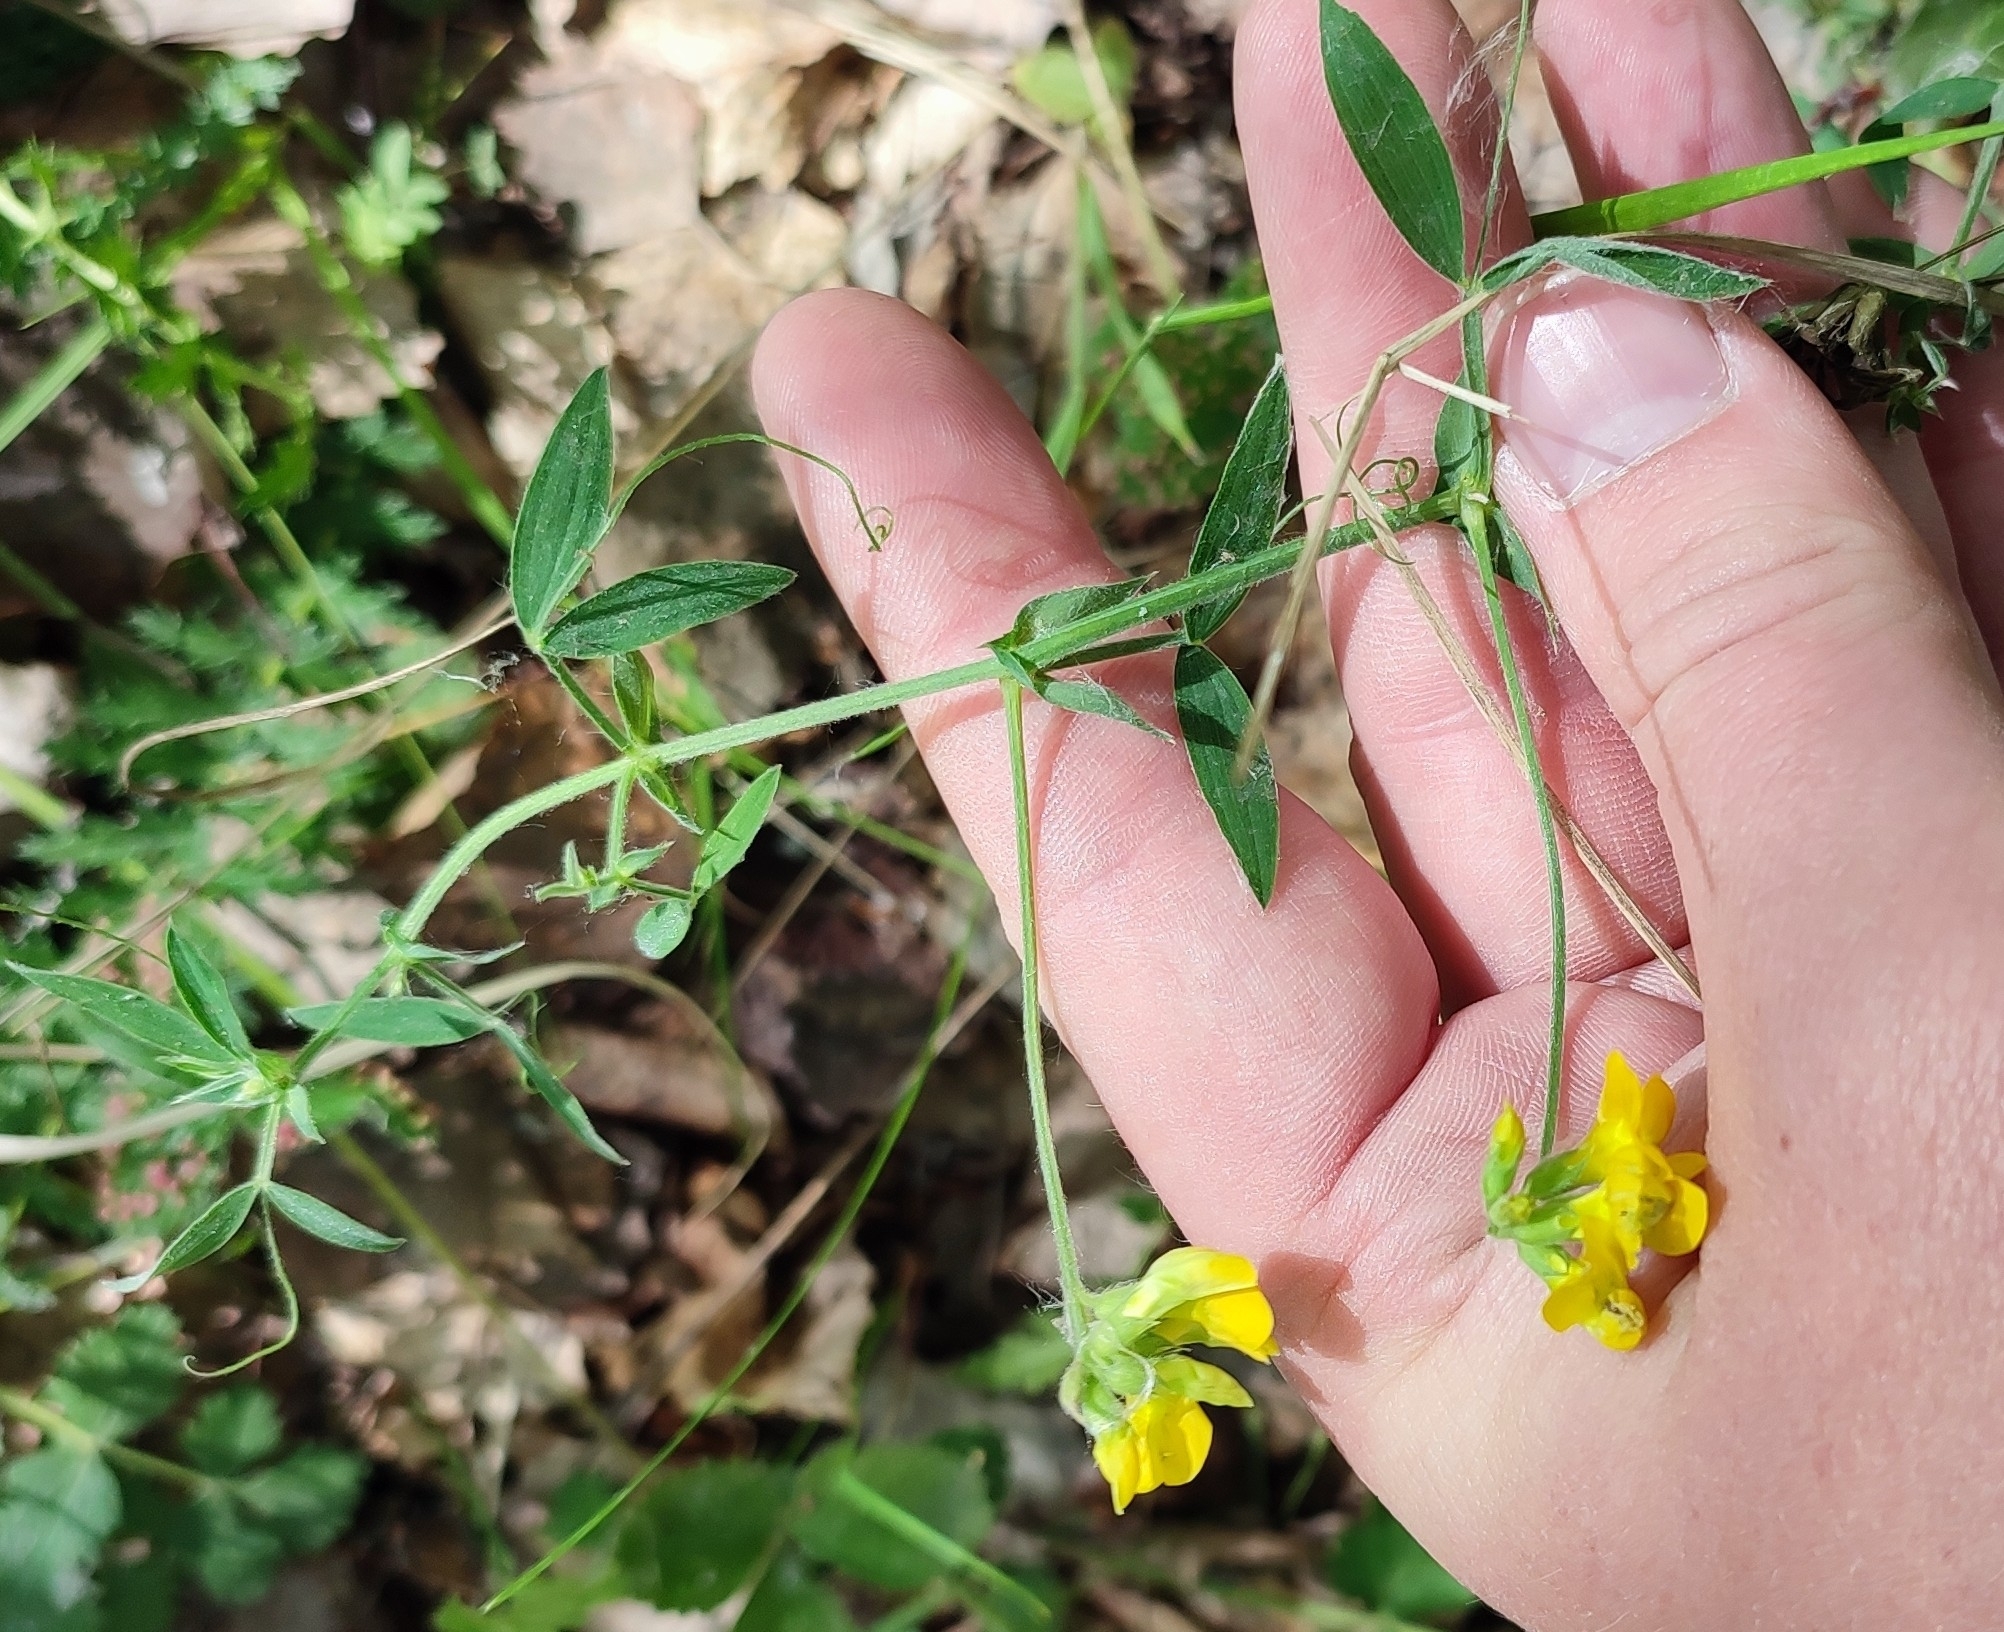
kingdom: Plantae
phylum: Tracheophyta
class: Magnoliopsida
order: Fabales
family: Fabaceae
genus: Lathyrus
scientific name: Lathyrus pratensis
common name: Meadow vetchling
